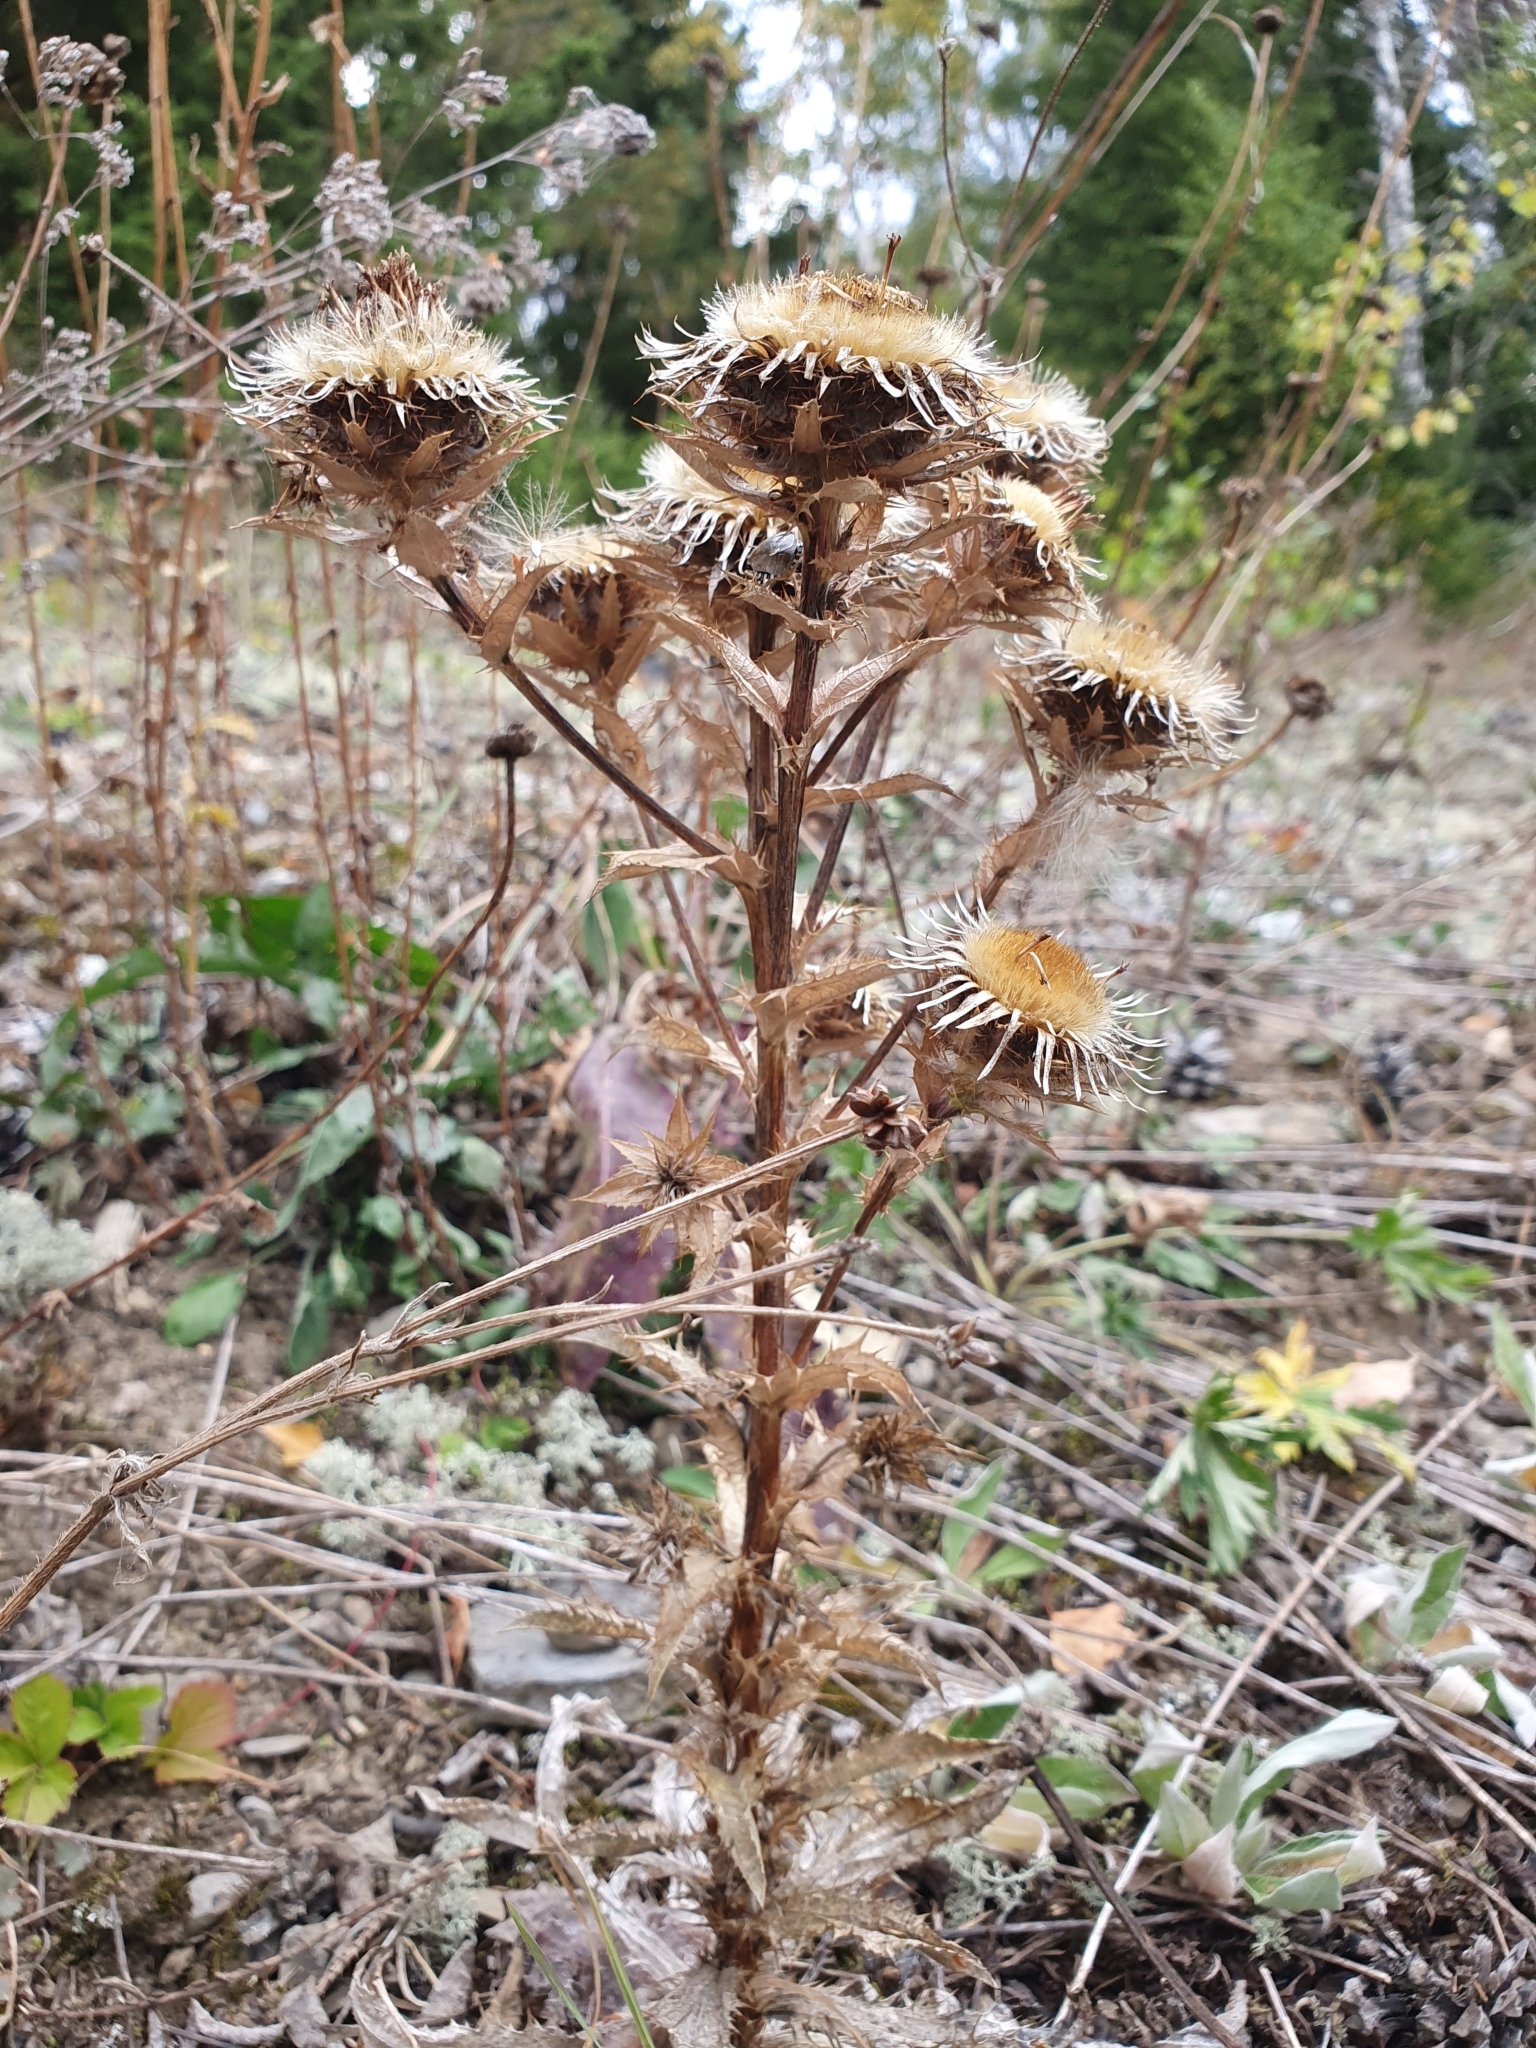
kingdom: Plantae
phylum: Tracheophyta
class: Magnoliopsida
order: Asterales
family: Asteraceae
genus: Carlina
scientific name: Carlina vulgaris
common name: Carline thistle
